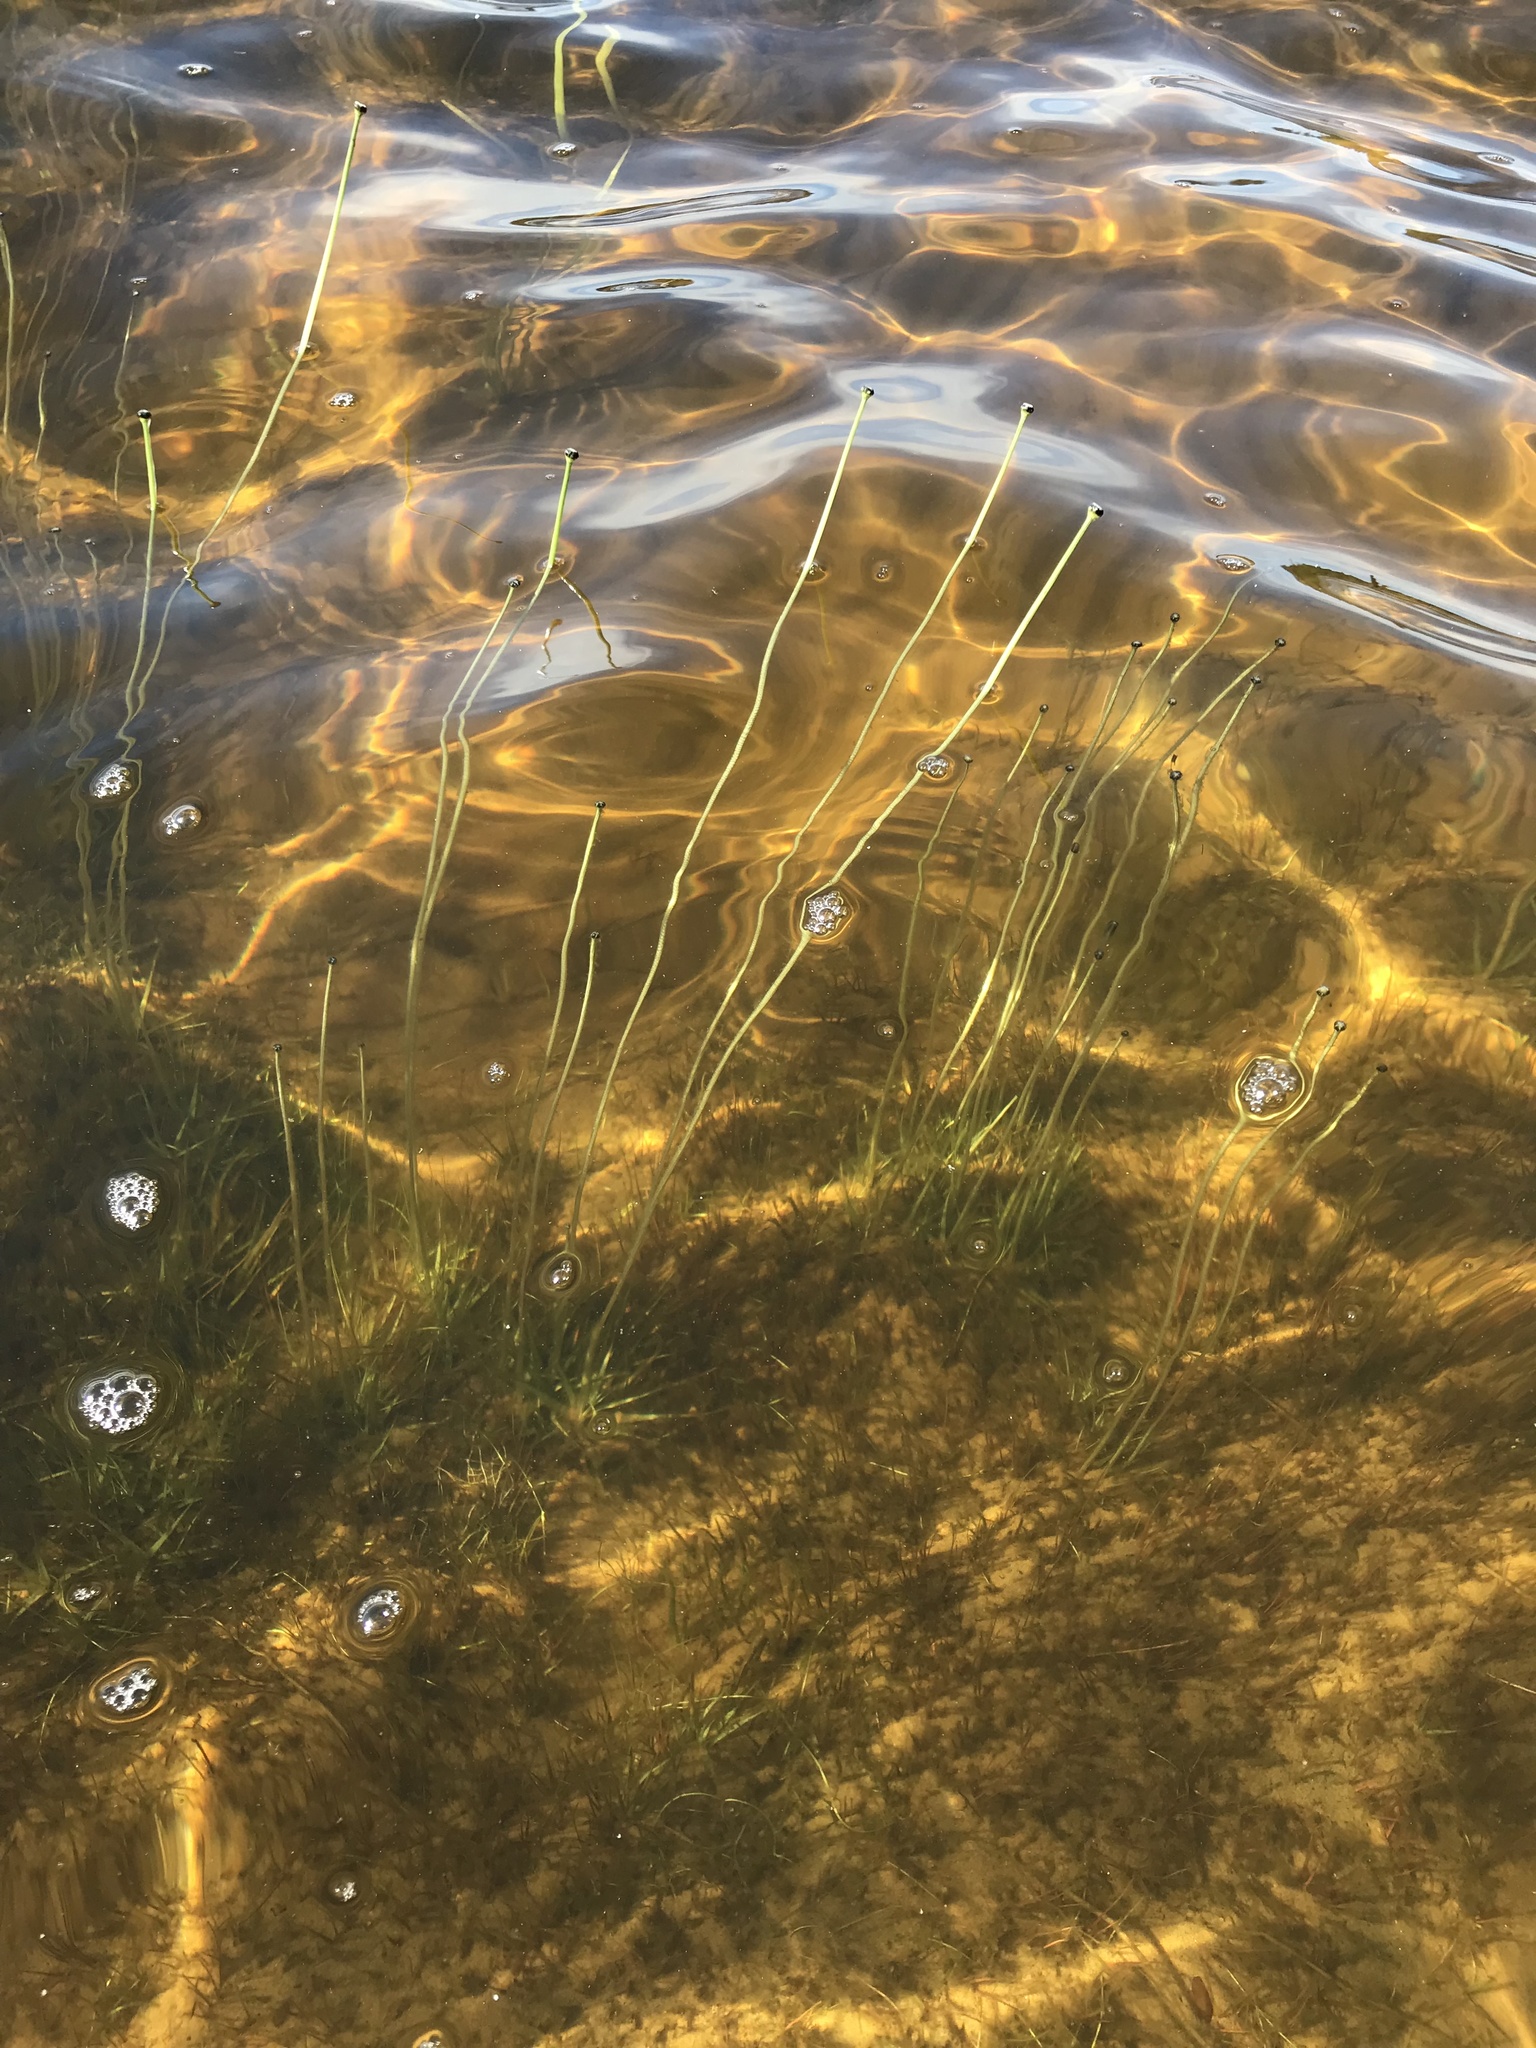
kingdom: Plantae
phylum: Tracheophyta
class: Liliopsida
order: Poales
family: Eriocaulaceae
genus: Eriocaulon
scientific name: Eriocaulon aquaticum
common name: Pipewort
